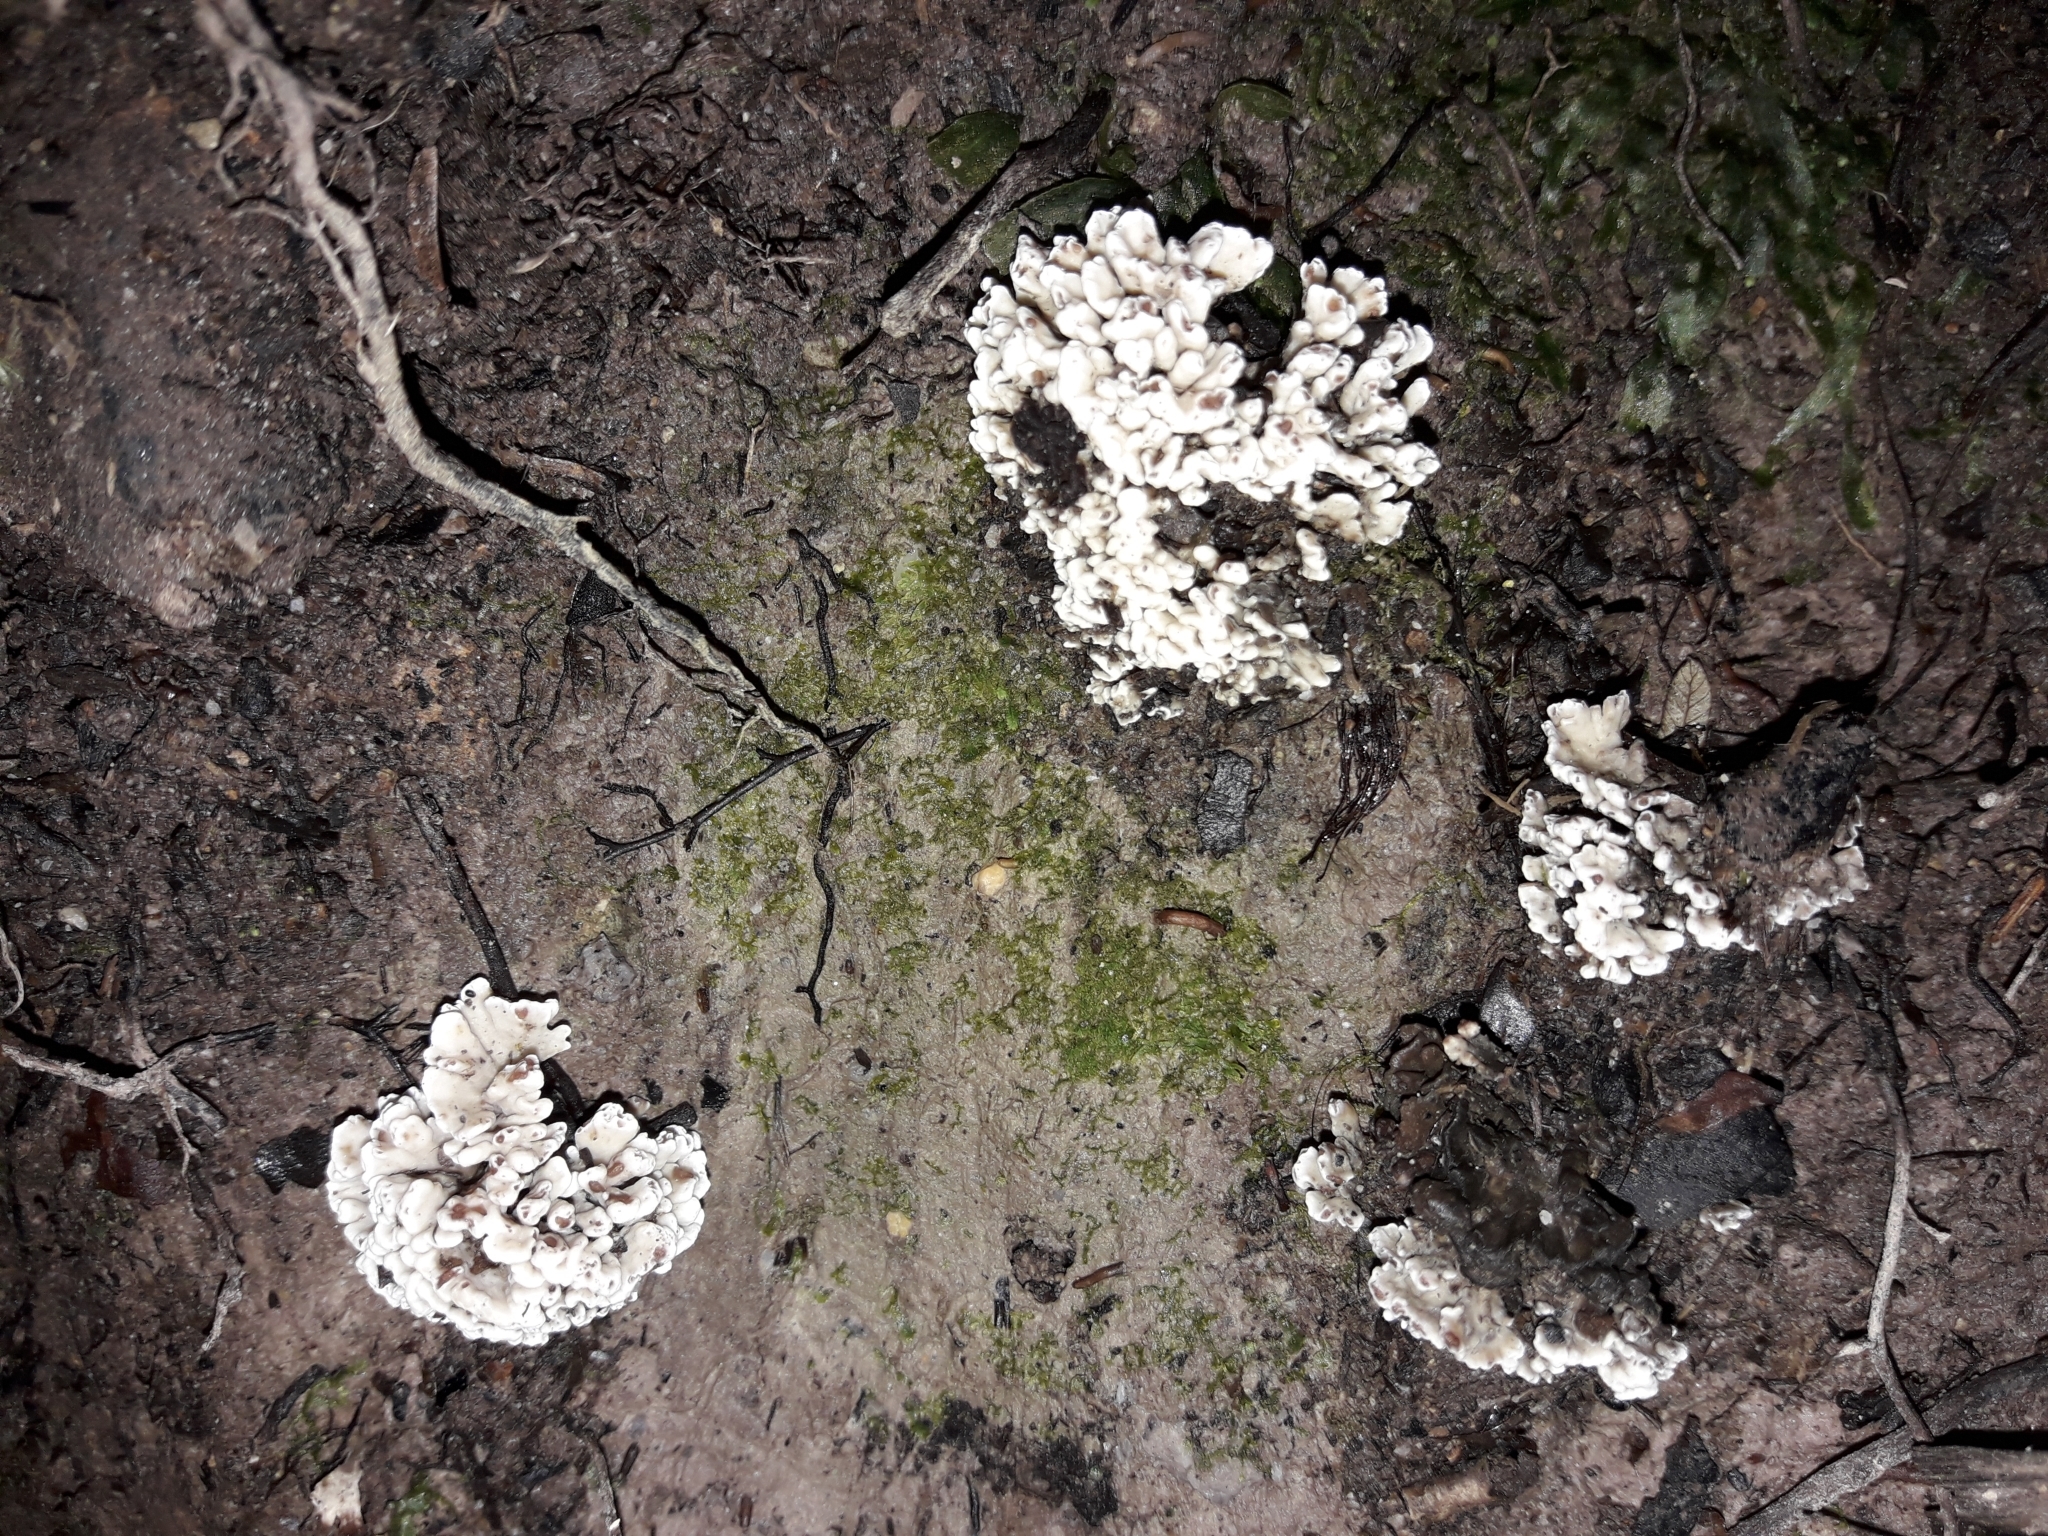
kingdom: Fungi
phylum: Basidiomycota
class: Agaricomycetes
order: Stereopsidales
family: Stereopsidaceae
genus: Stereopsis
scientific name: Stereopsis hiscens
